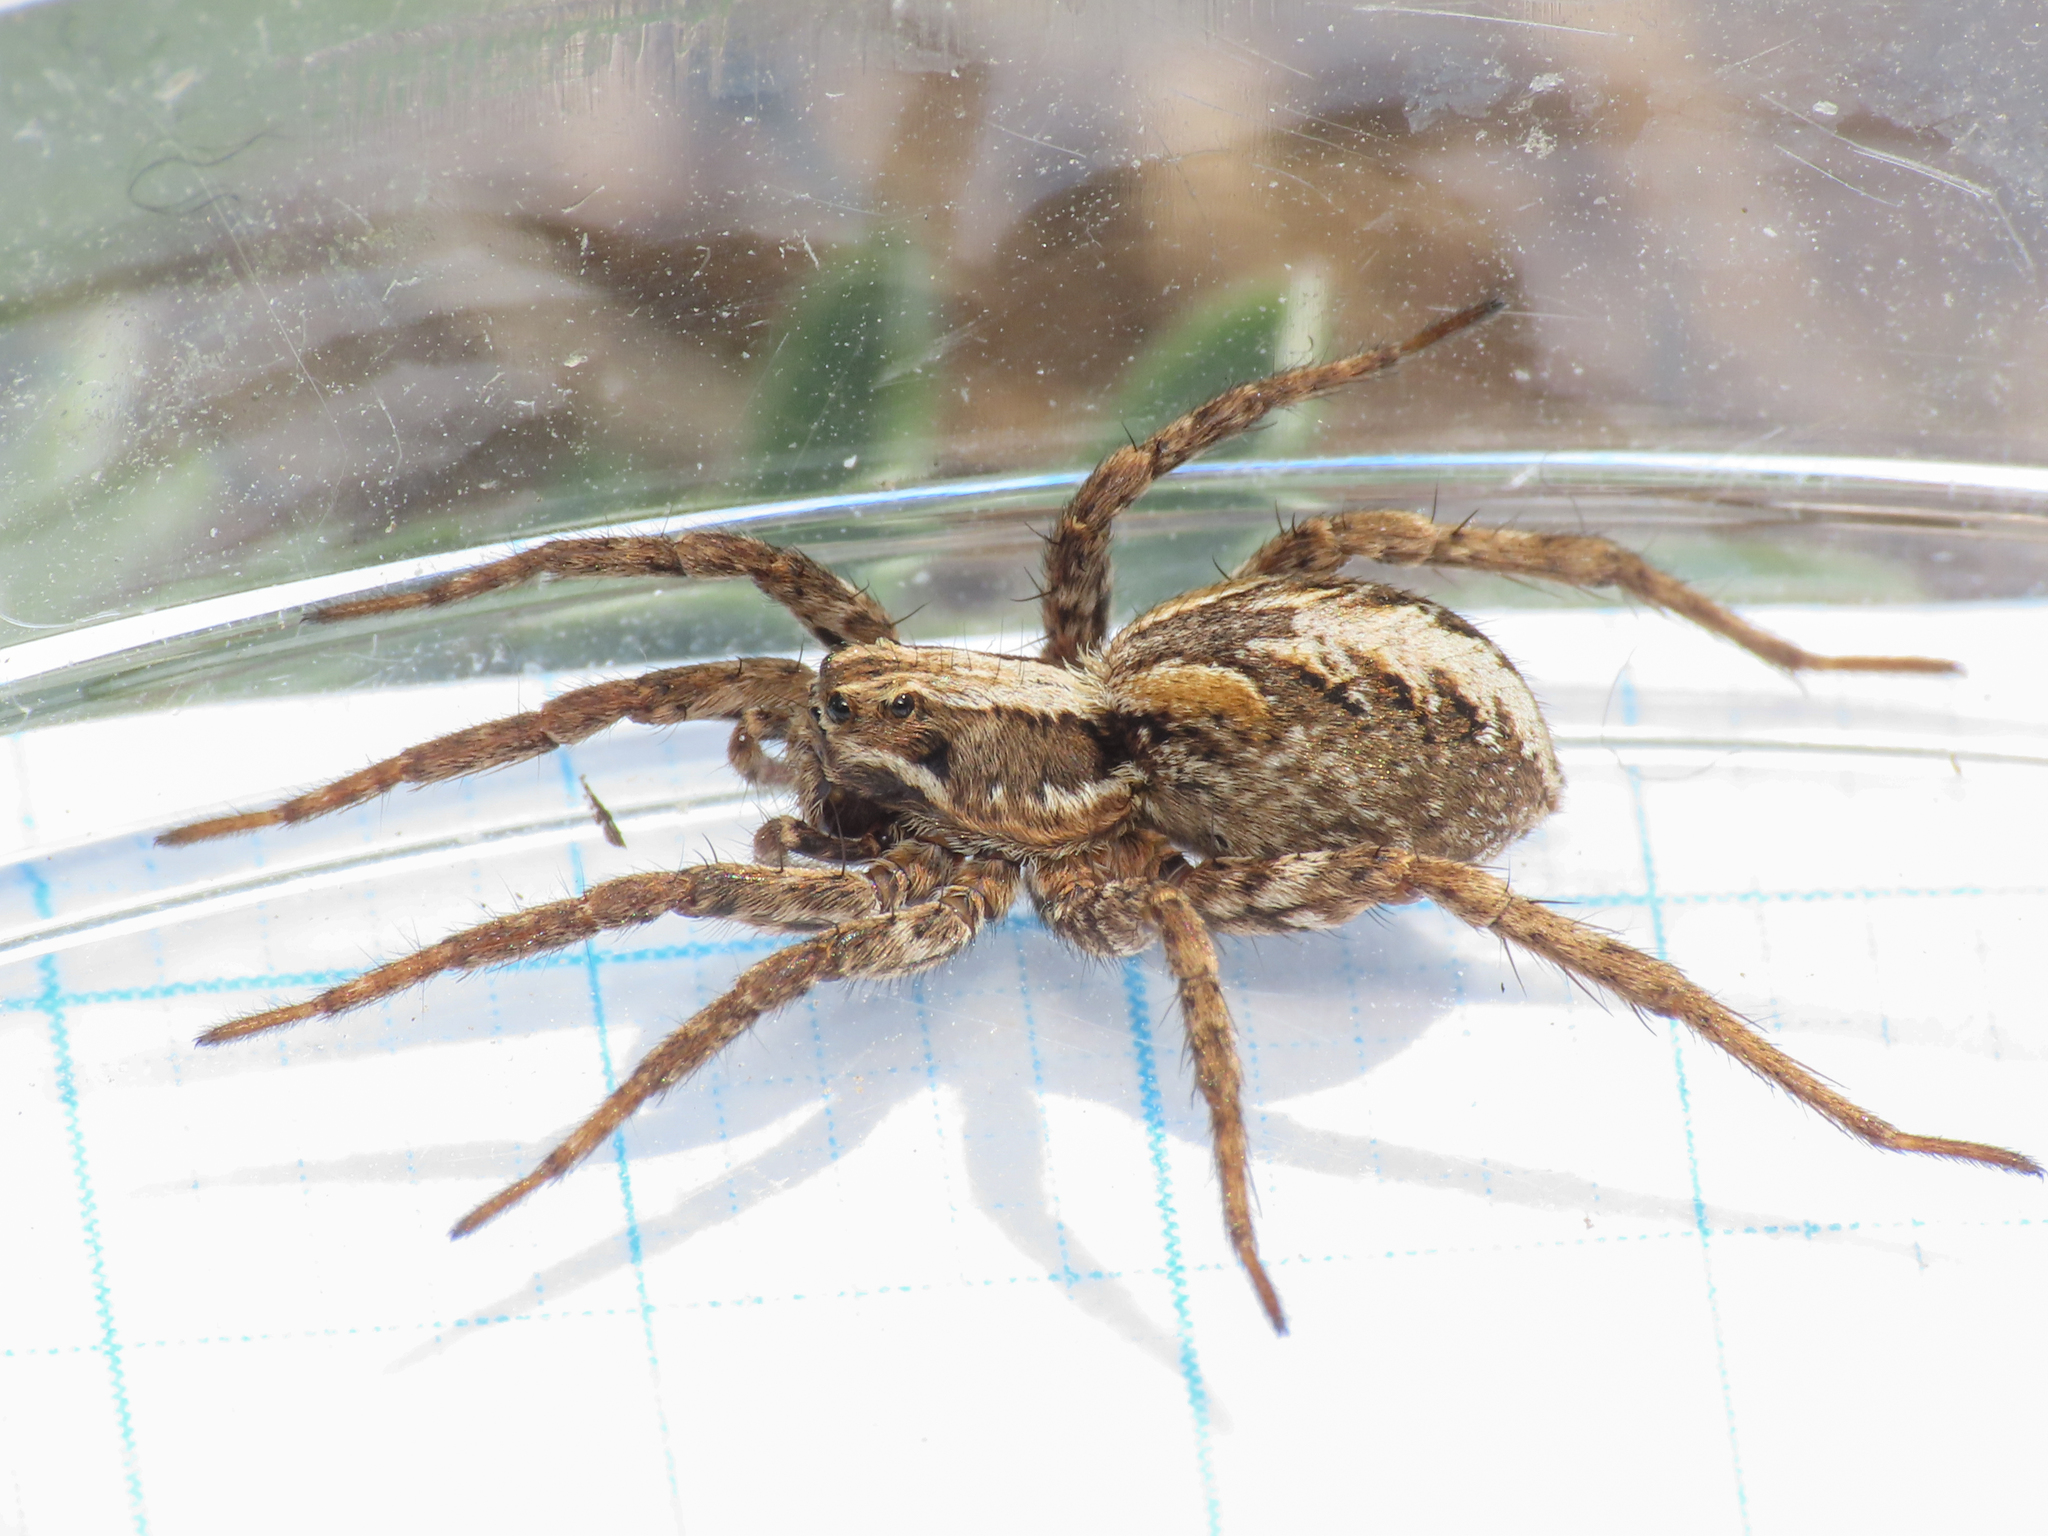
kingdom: Animalia
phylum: Arthropoda
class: Arachnida
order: Araneae
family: Lycosidae
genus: Alopecosa
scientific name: Alopecosa cursor
